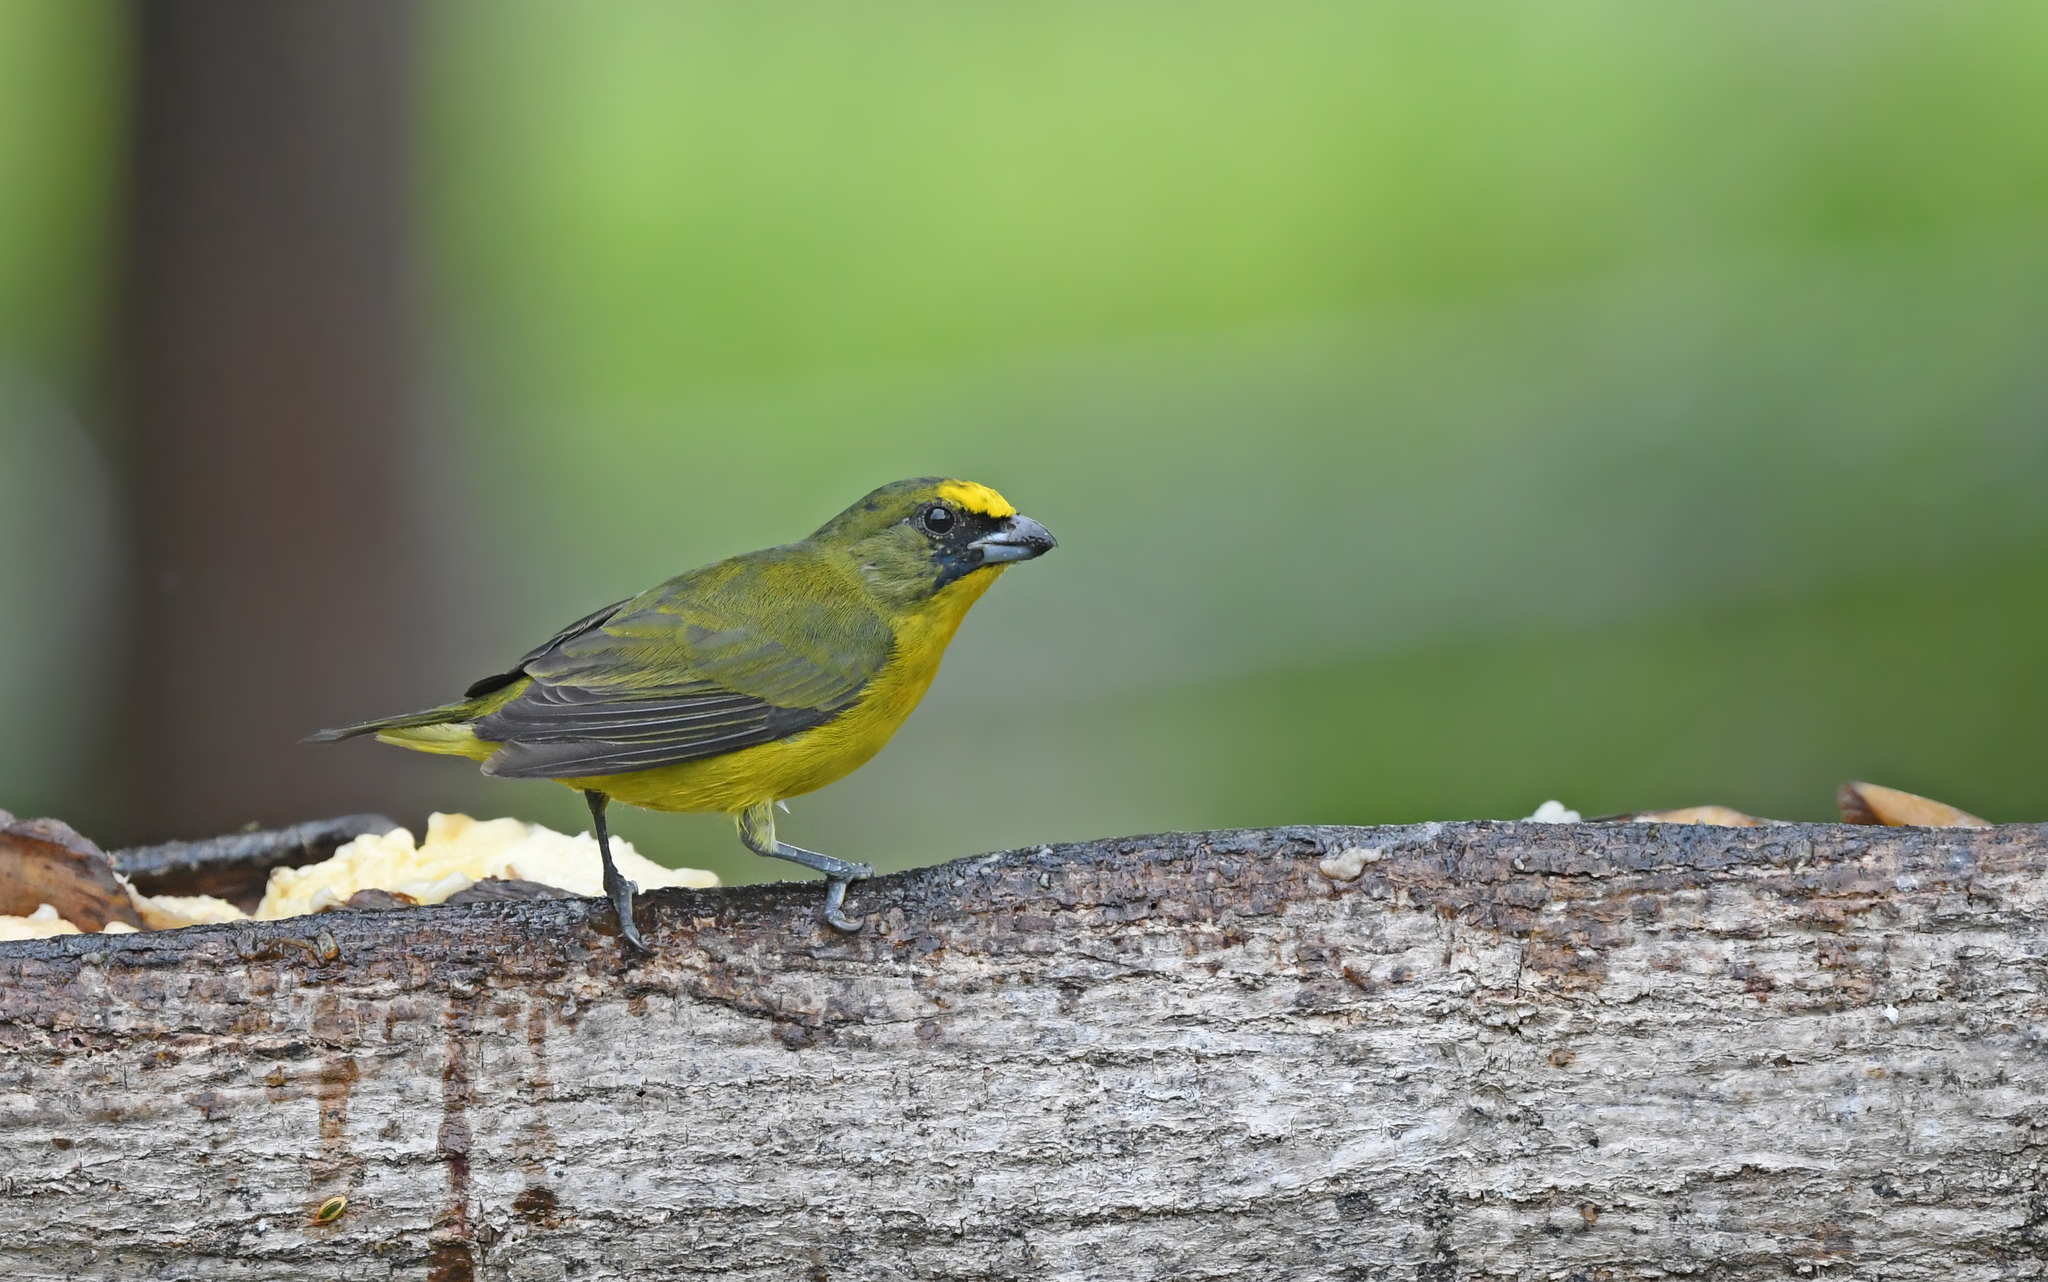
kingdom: Animalia
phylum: Chordata
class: Aves
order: Passeriformes
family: Fringillidae
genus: Euphonia
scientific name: Euphonia laniirostris
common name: Thick-billed euphonia
